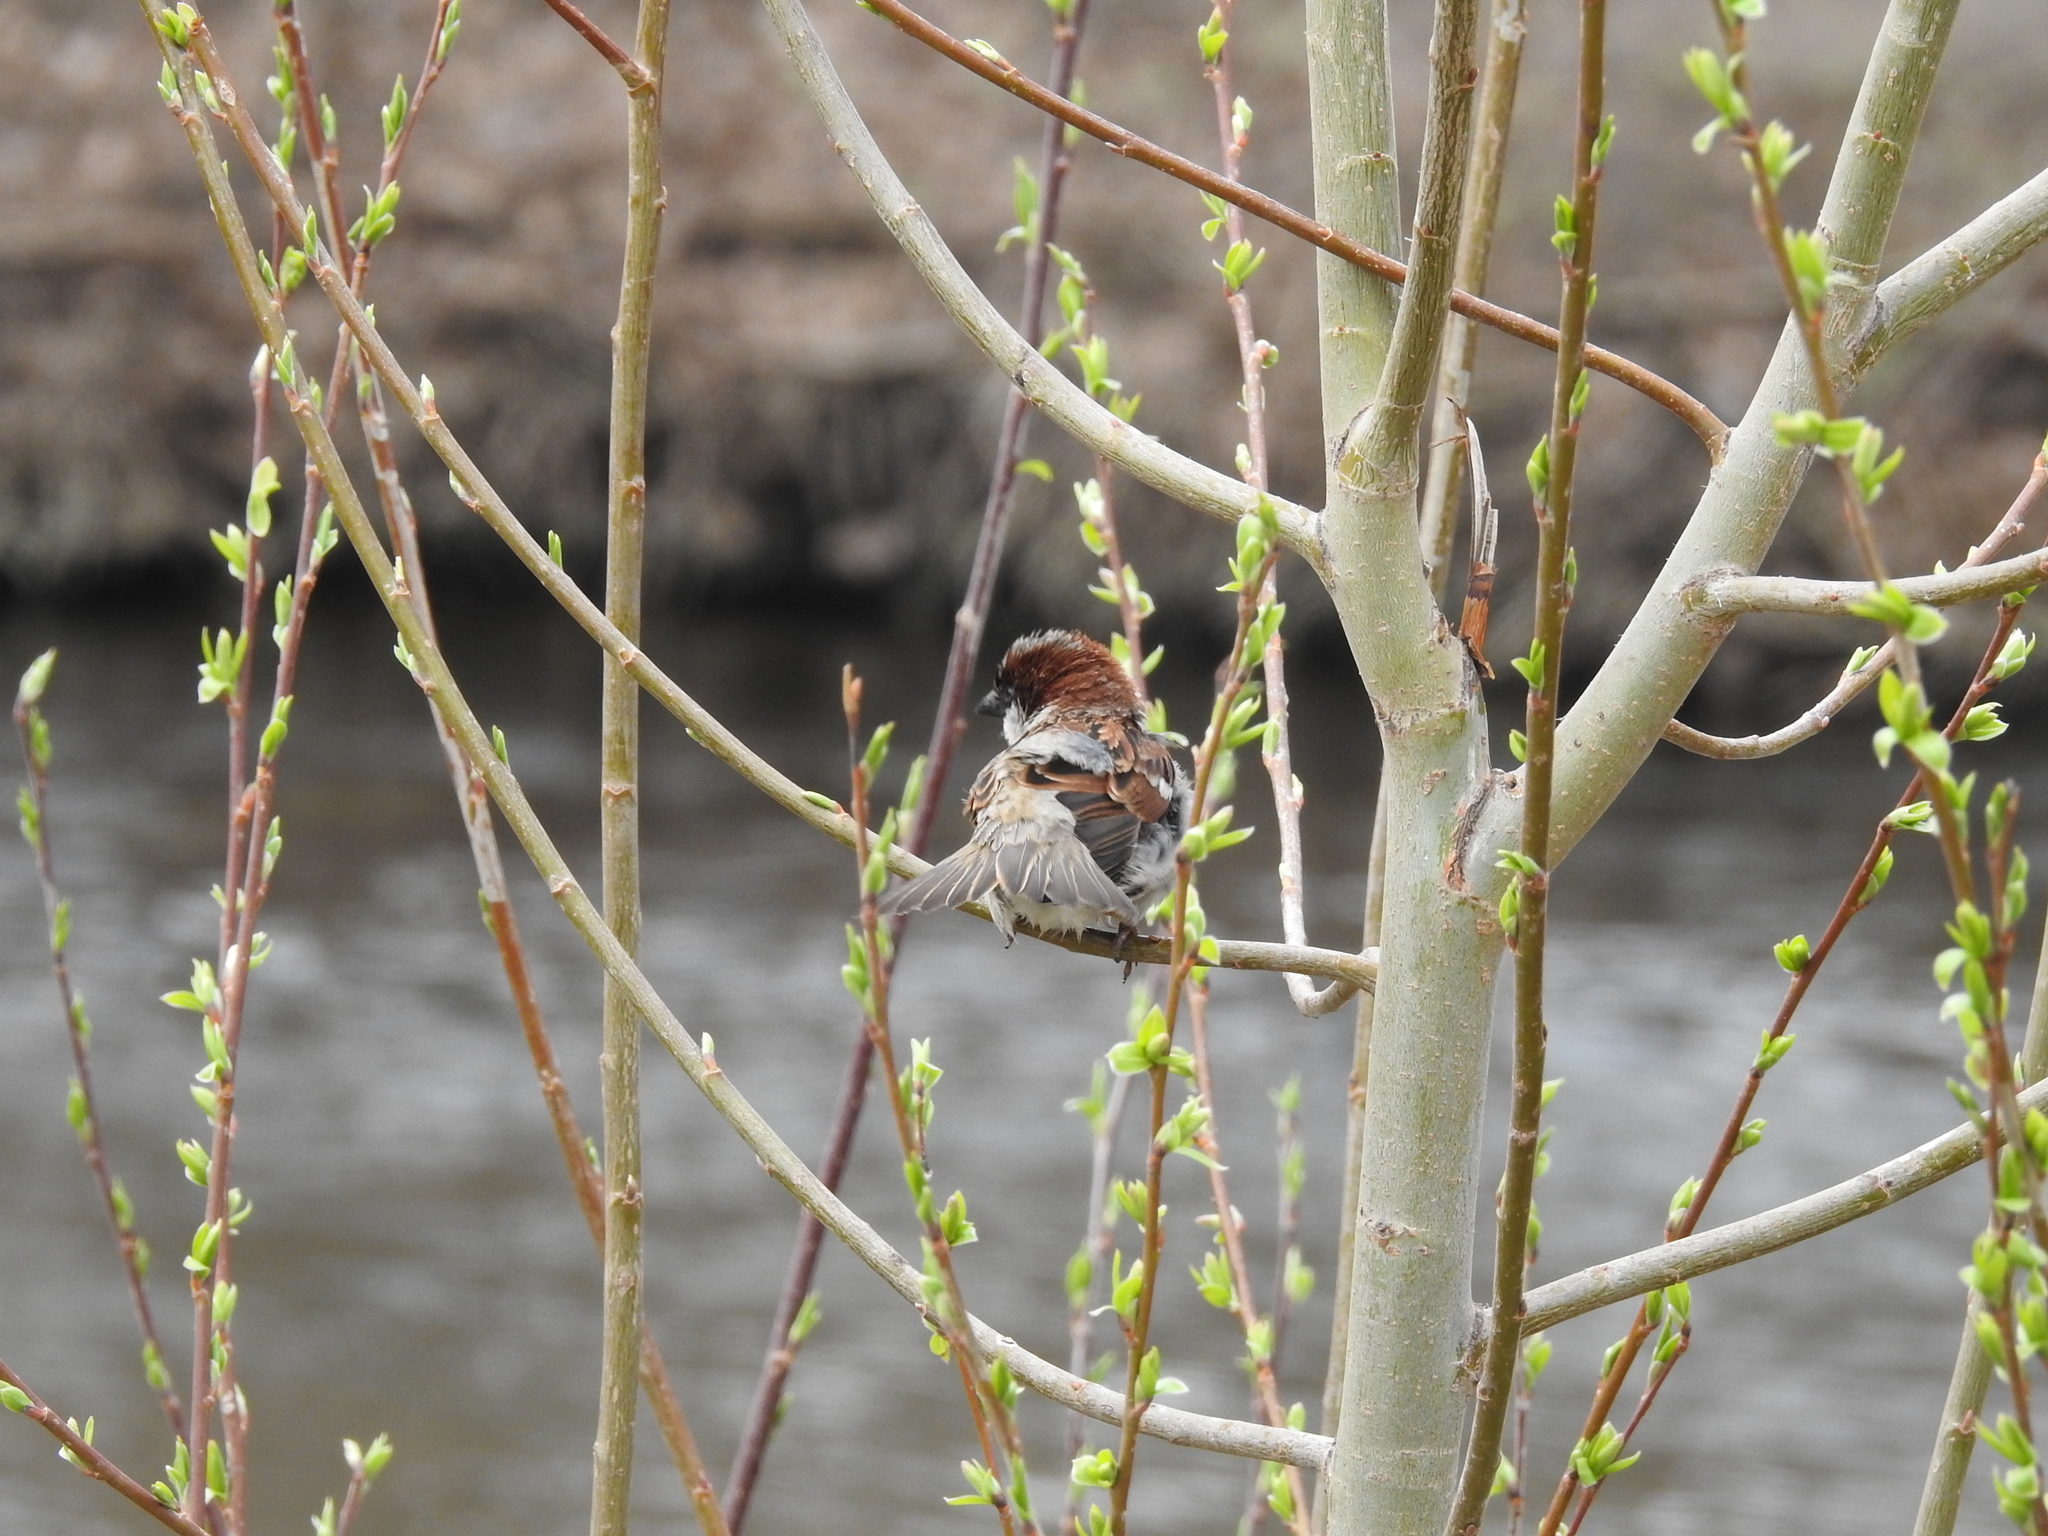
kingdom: Animalia
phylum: Chordata
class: Aves
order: Passeriformes
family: Passeridae
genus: Passer
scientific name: Passer domesticus
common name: House sparrow
